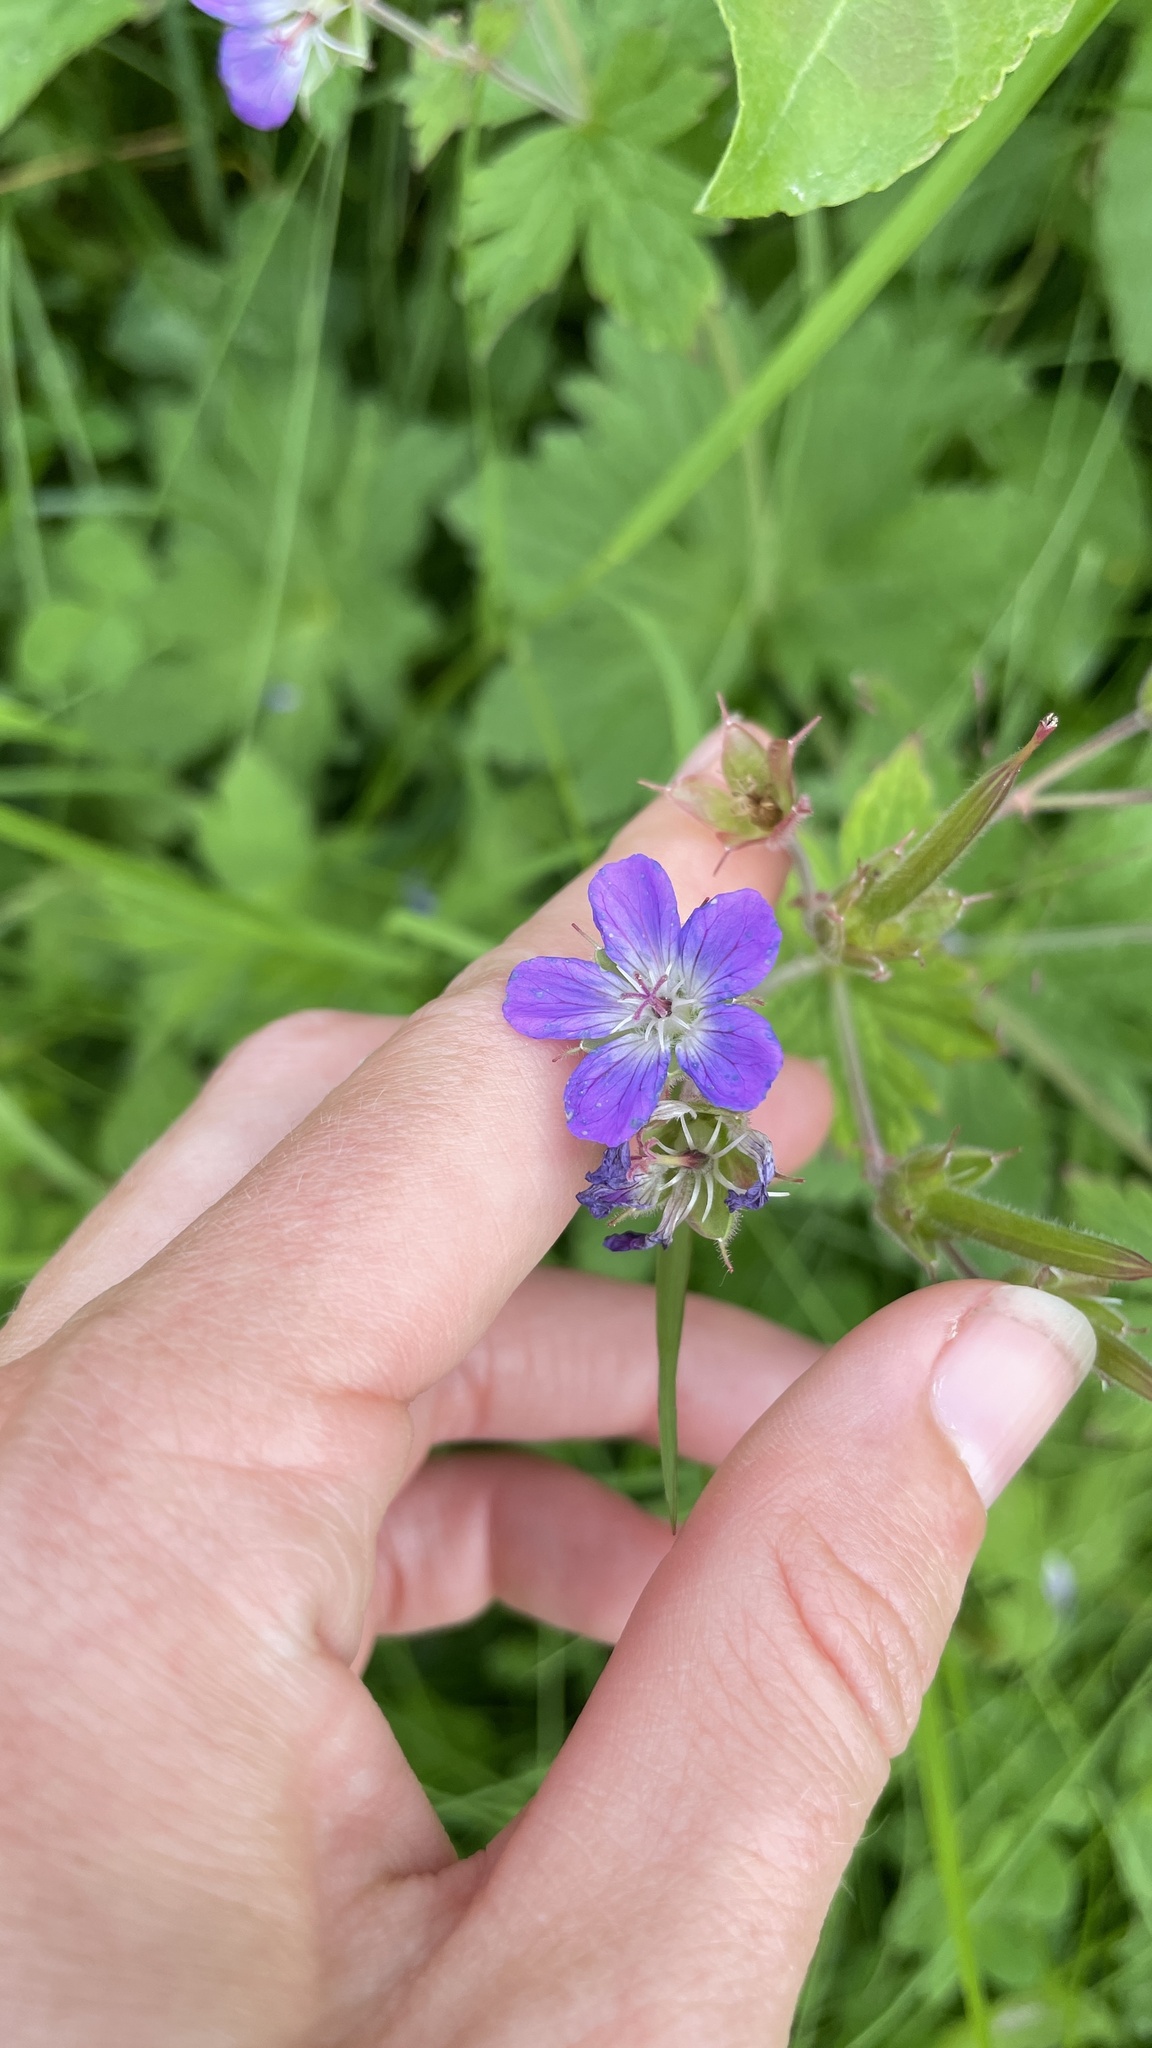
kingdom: Plantae
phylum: Tracheophyta
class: Magnoliopsida
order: Geraniales
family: Geraniaceae
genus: Geranium
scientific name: Geranium sylvaticum
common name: Wood crane's-bill
